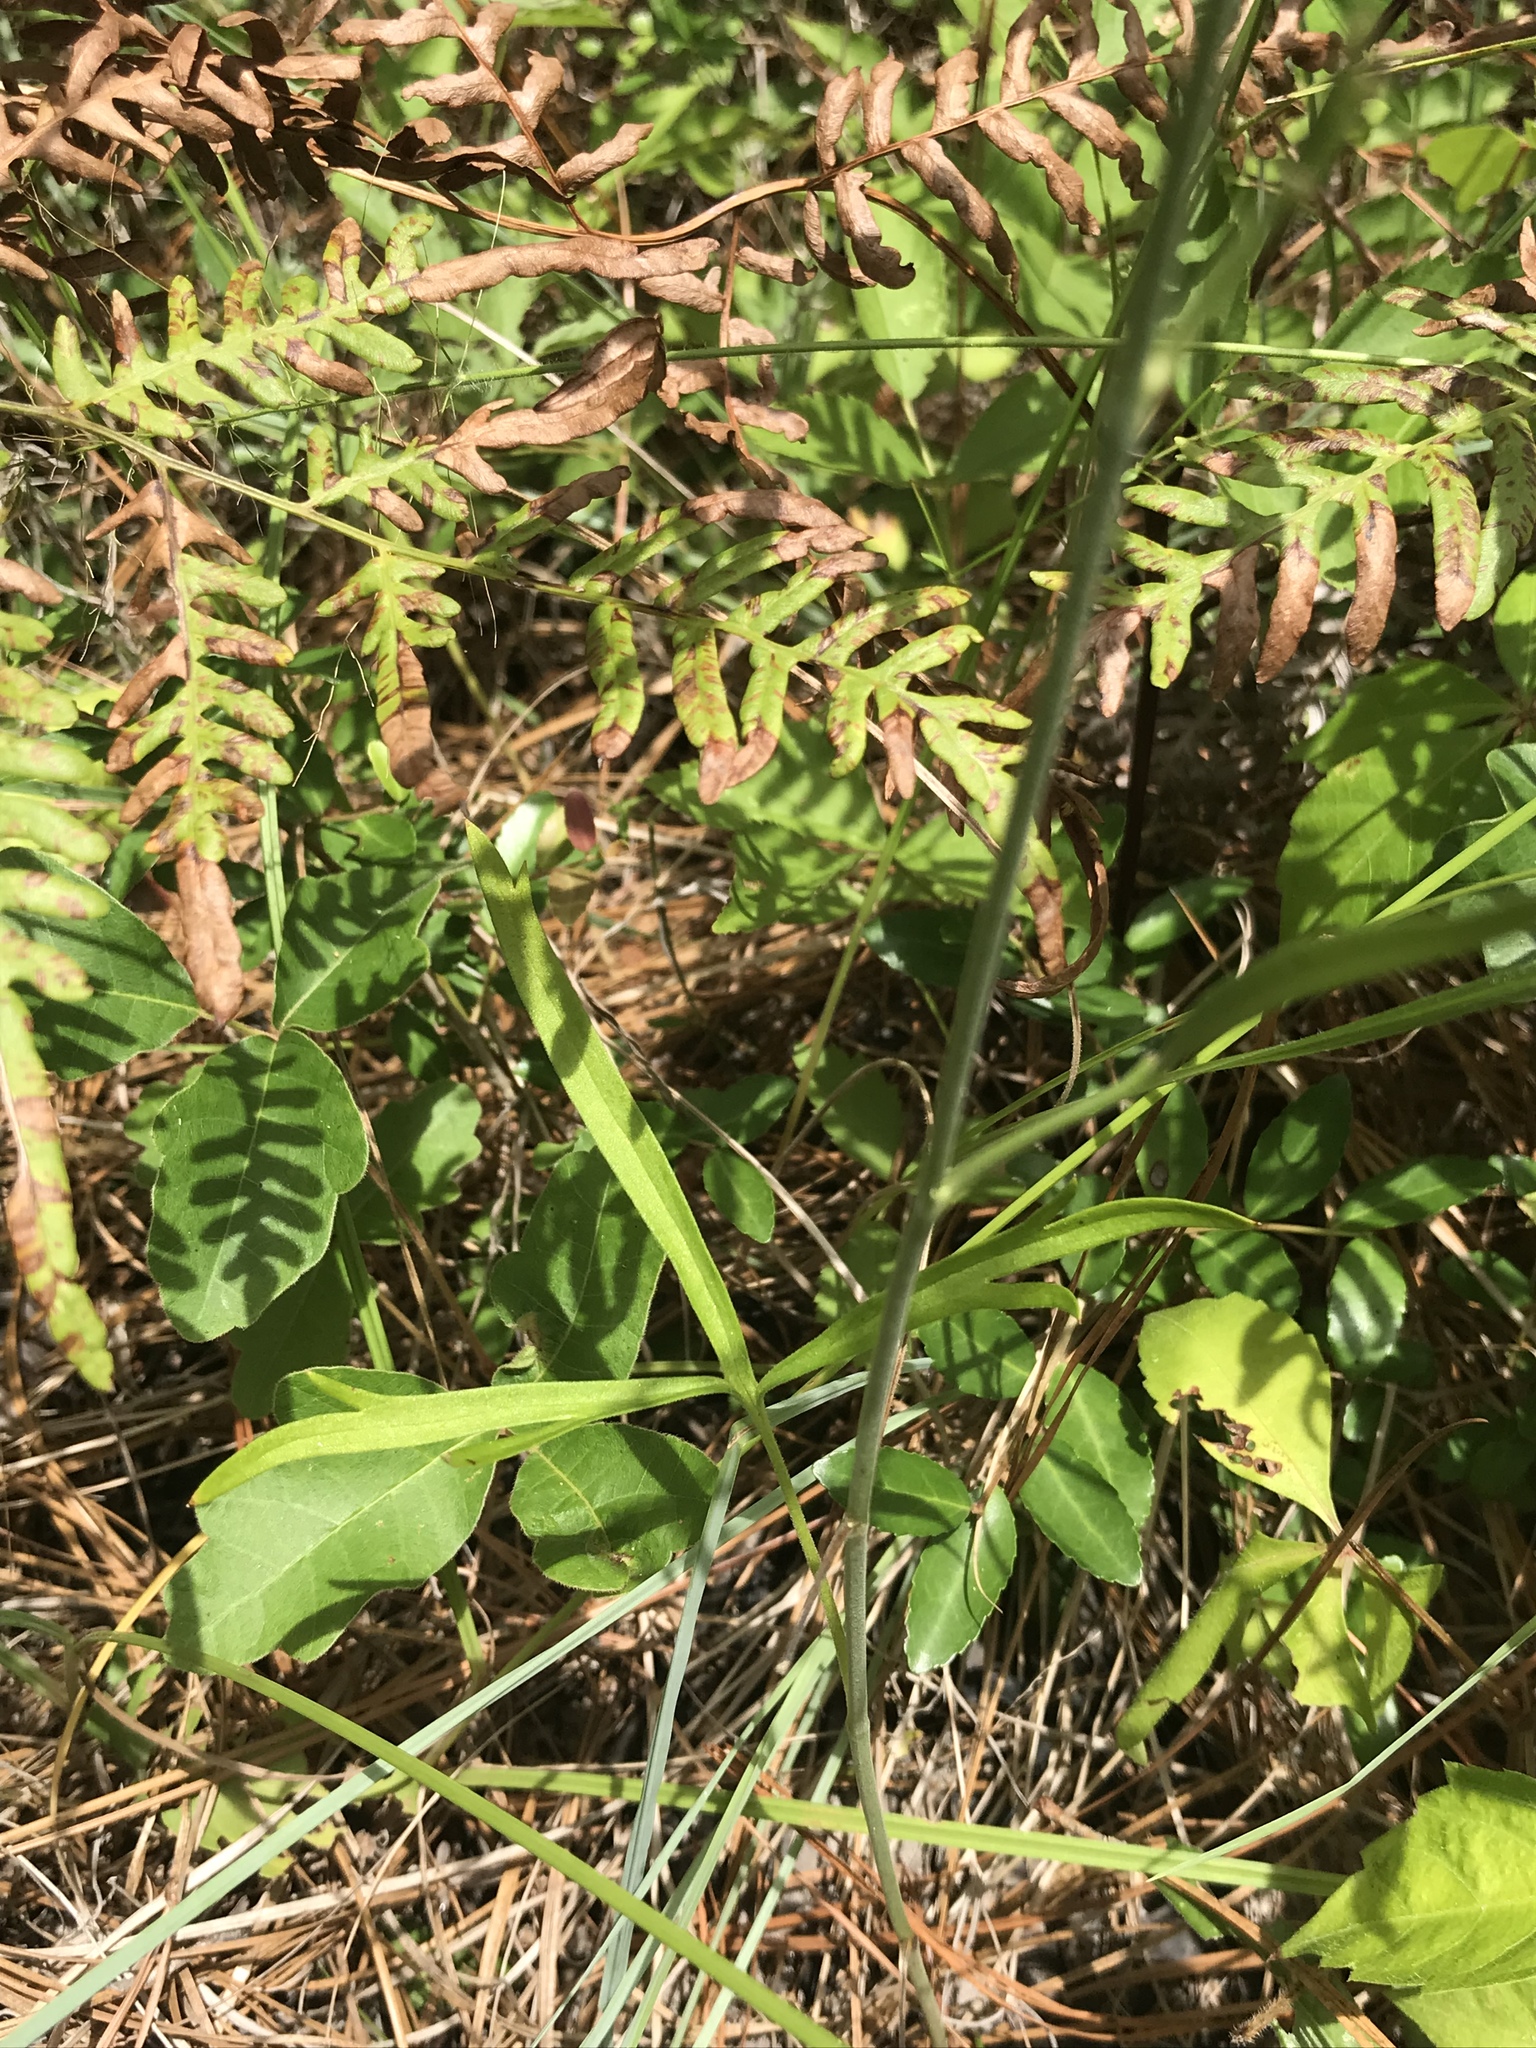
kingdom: Plantae
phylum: Tracheophyta
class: Magnoliopsida
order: Ranunculales
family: Ranunculaceae
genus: Delphinium
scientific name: Delphinium carolinianum
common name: Carolina larkspur
